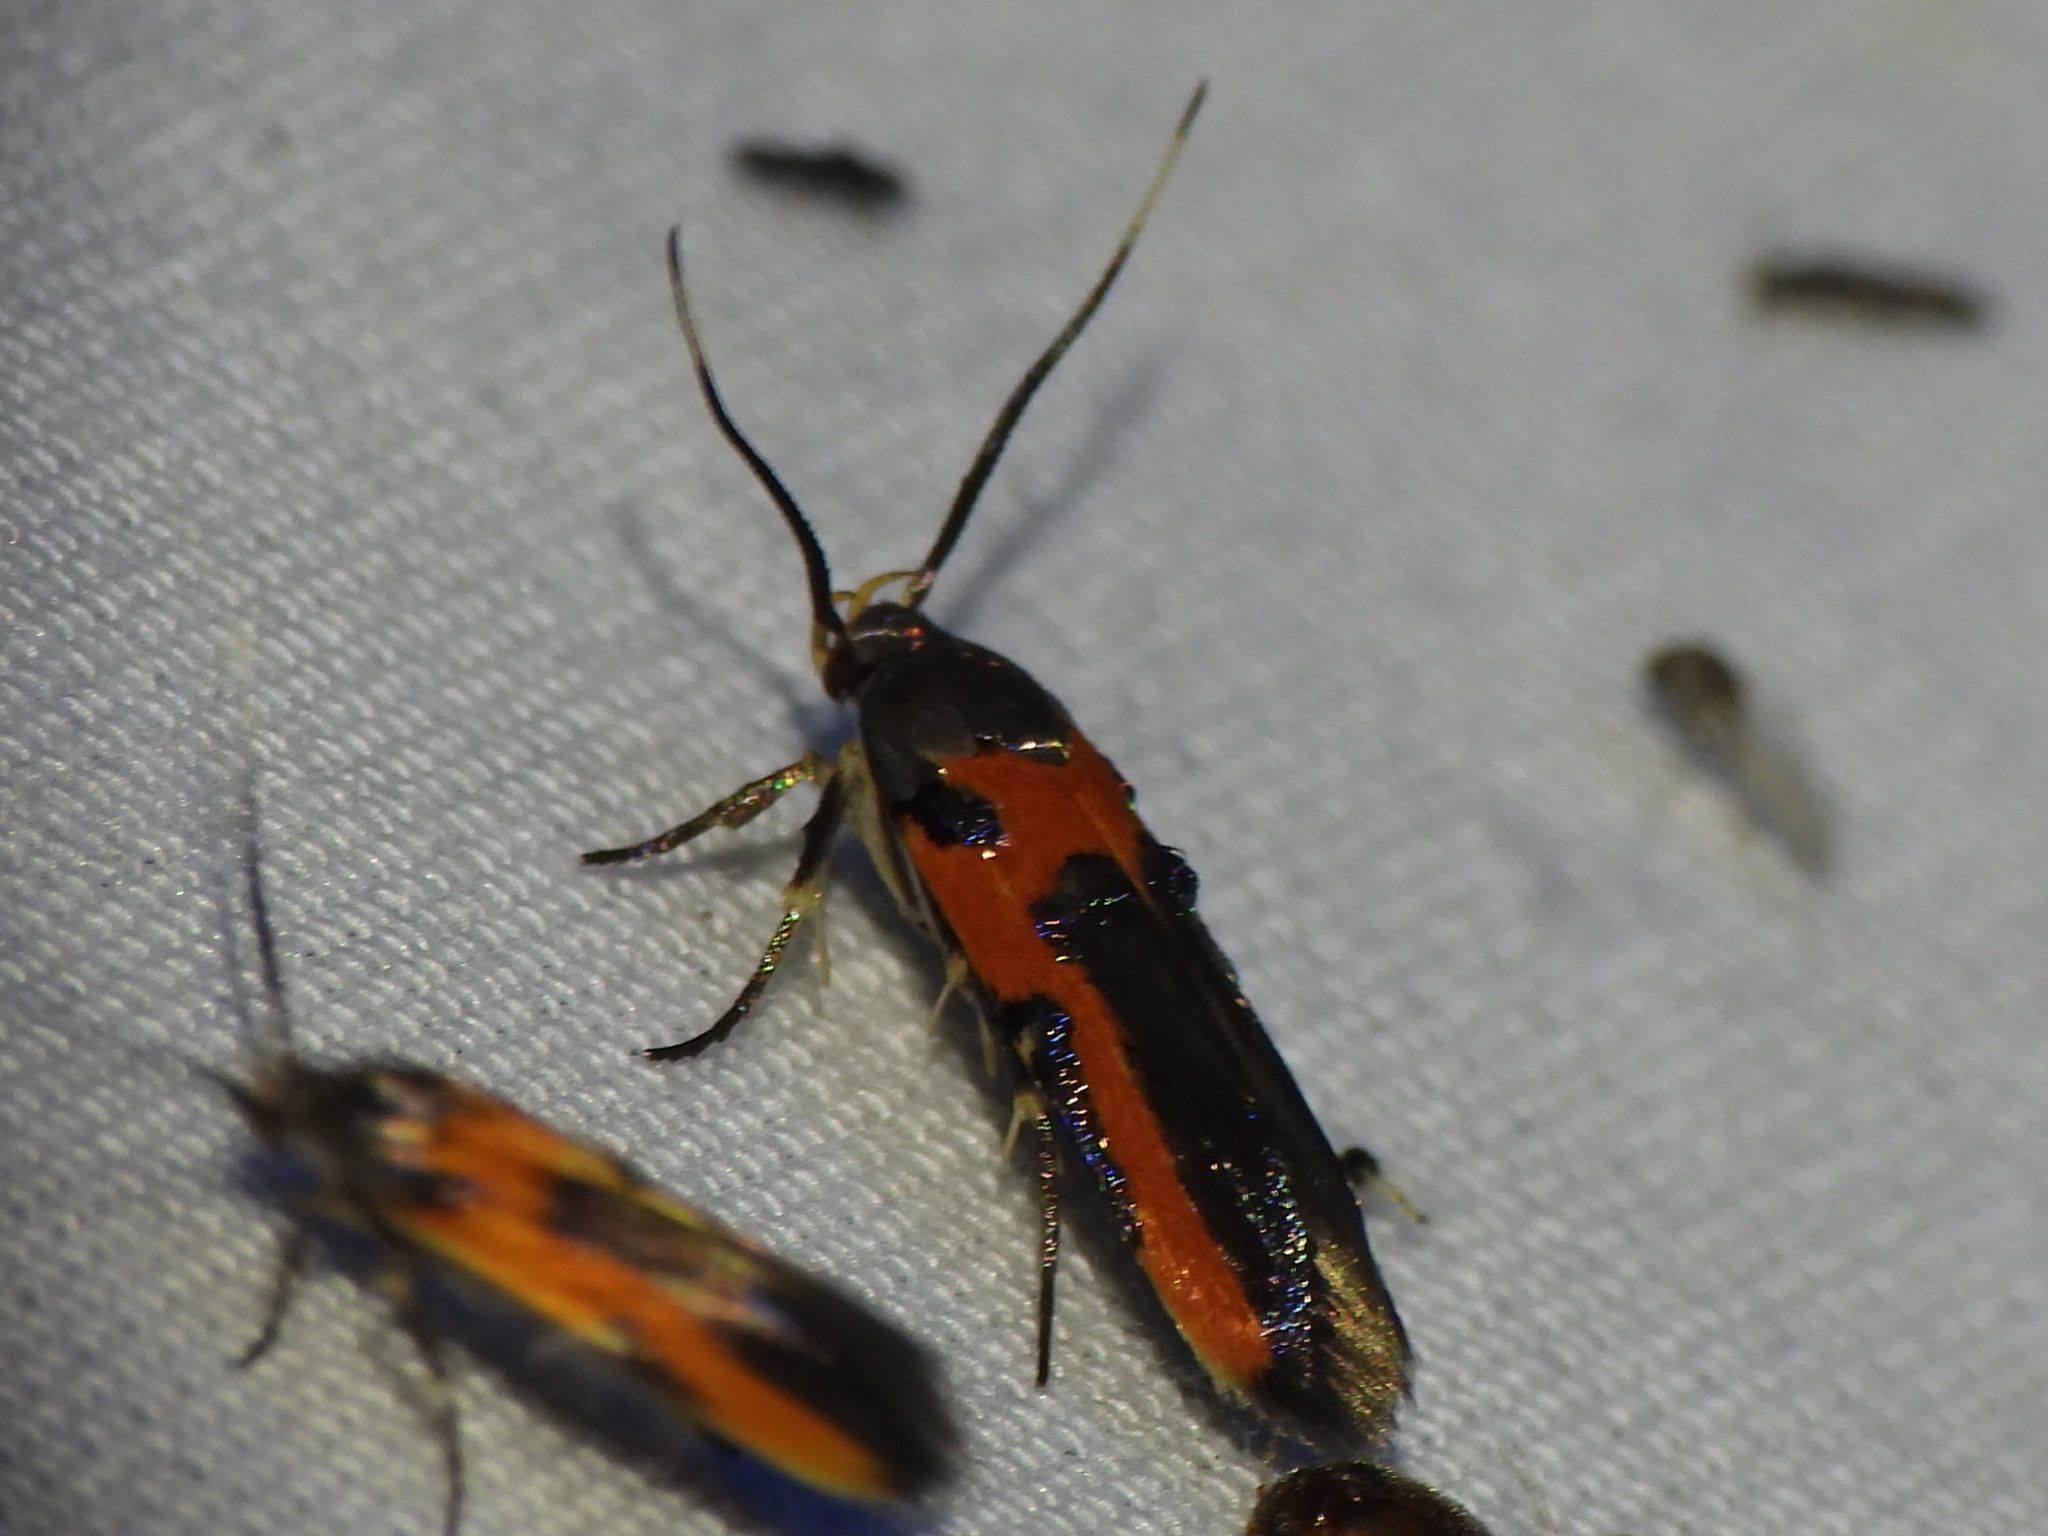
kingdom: Animalia
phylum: Arthropoda
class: Insecta
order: Lepidoptera
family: Cosmopterigidae
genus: Euclemensia
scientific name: Euclemensia bassettella
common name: Kermes scale moth
